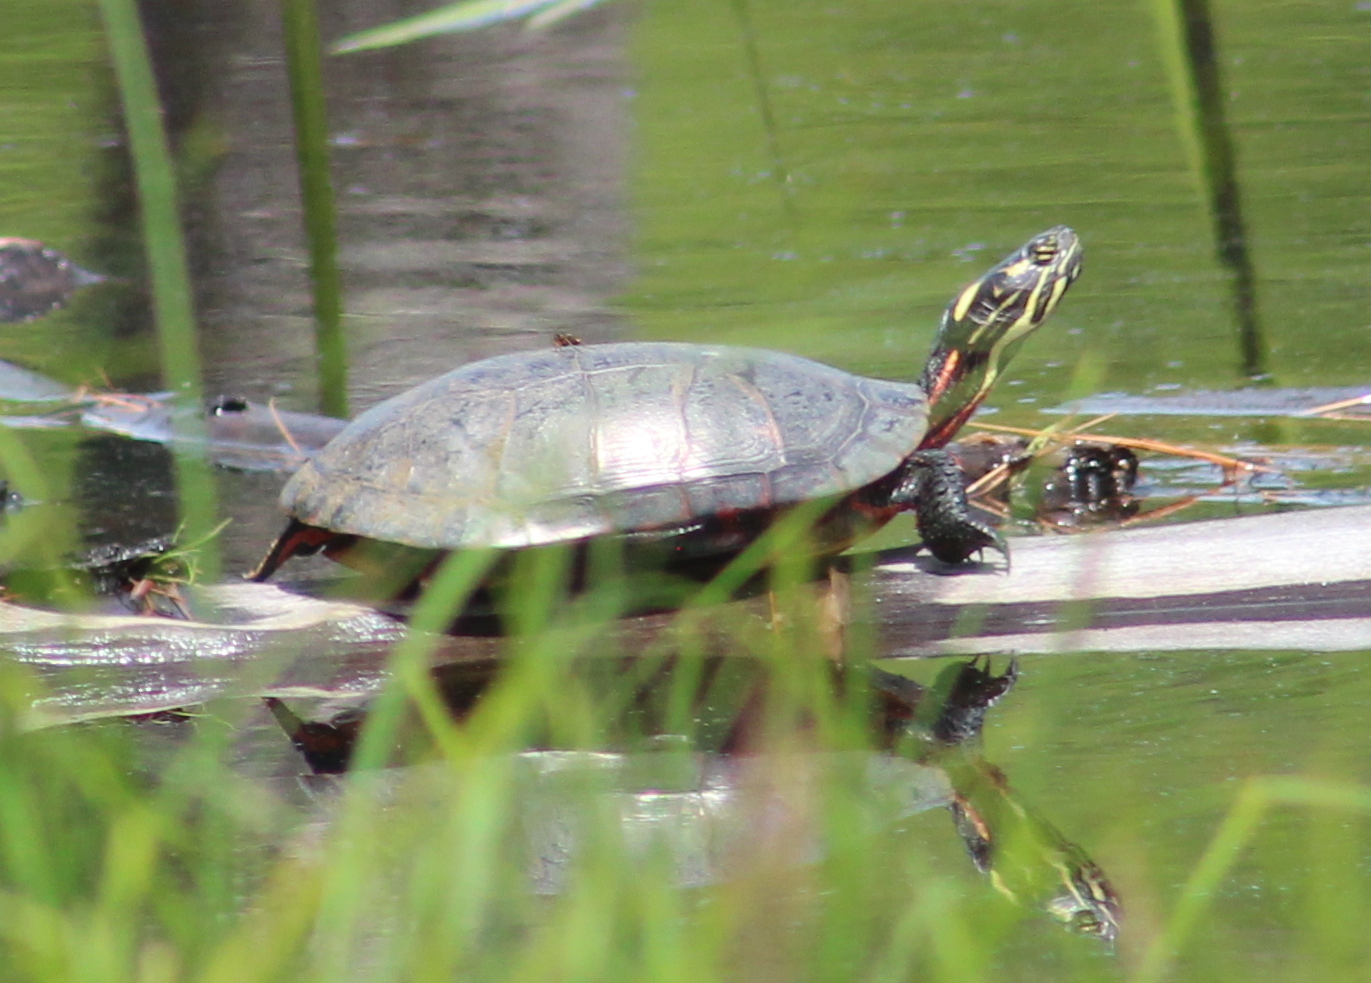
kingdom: Animalia
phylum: Chordata
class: Testudines
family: Emydidae
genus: Chrysemys
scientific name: Chrysemys picta
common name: Painted turtle
